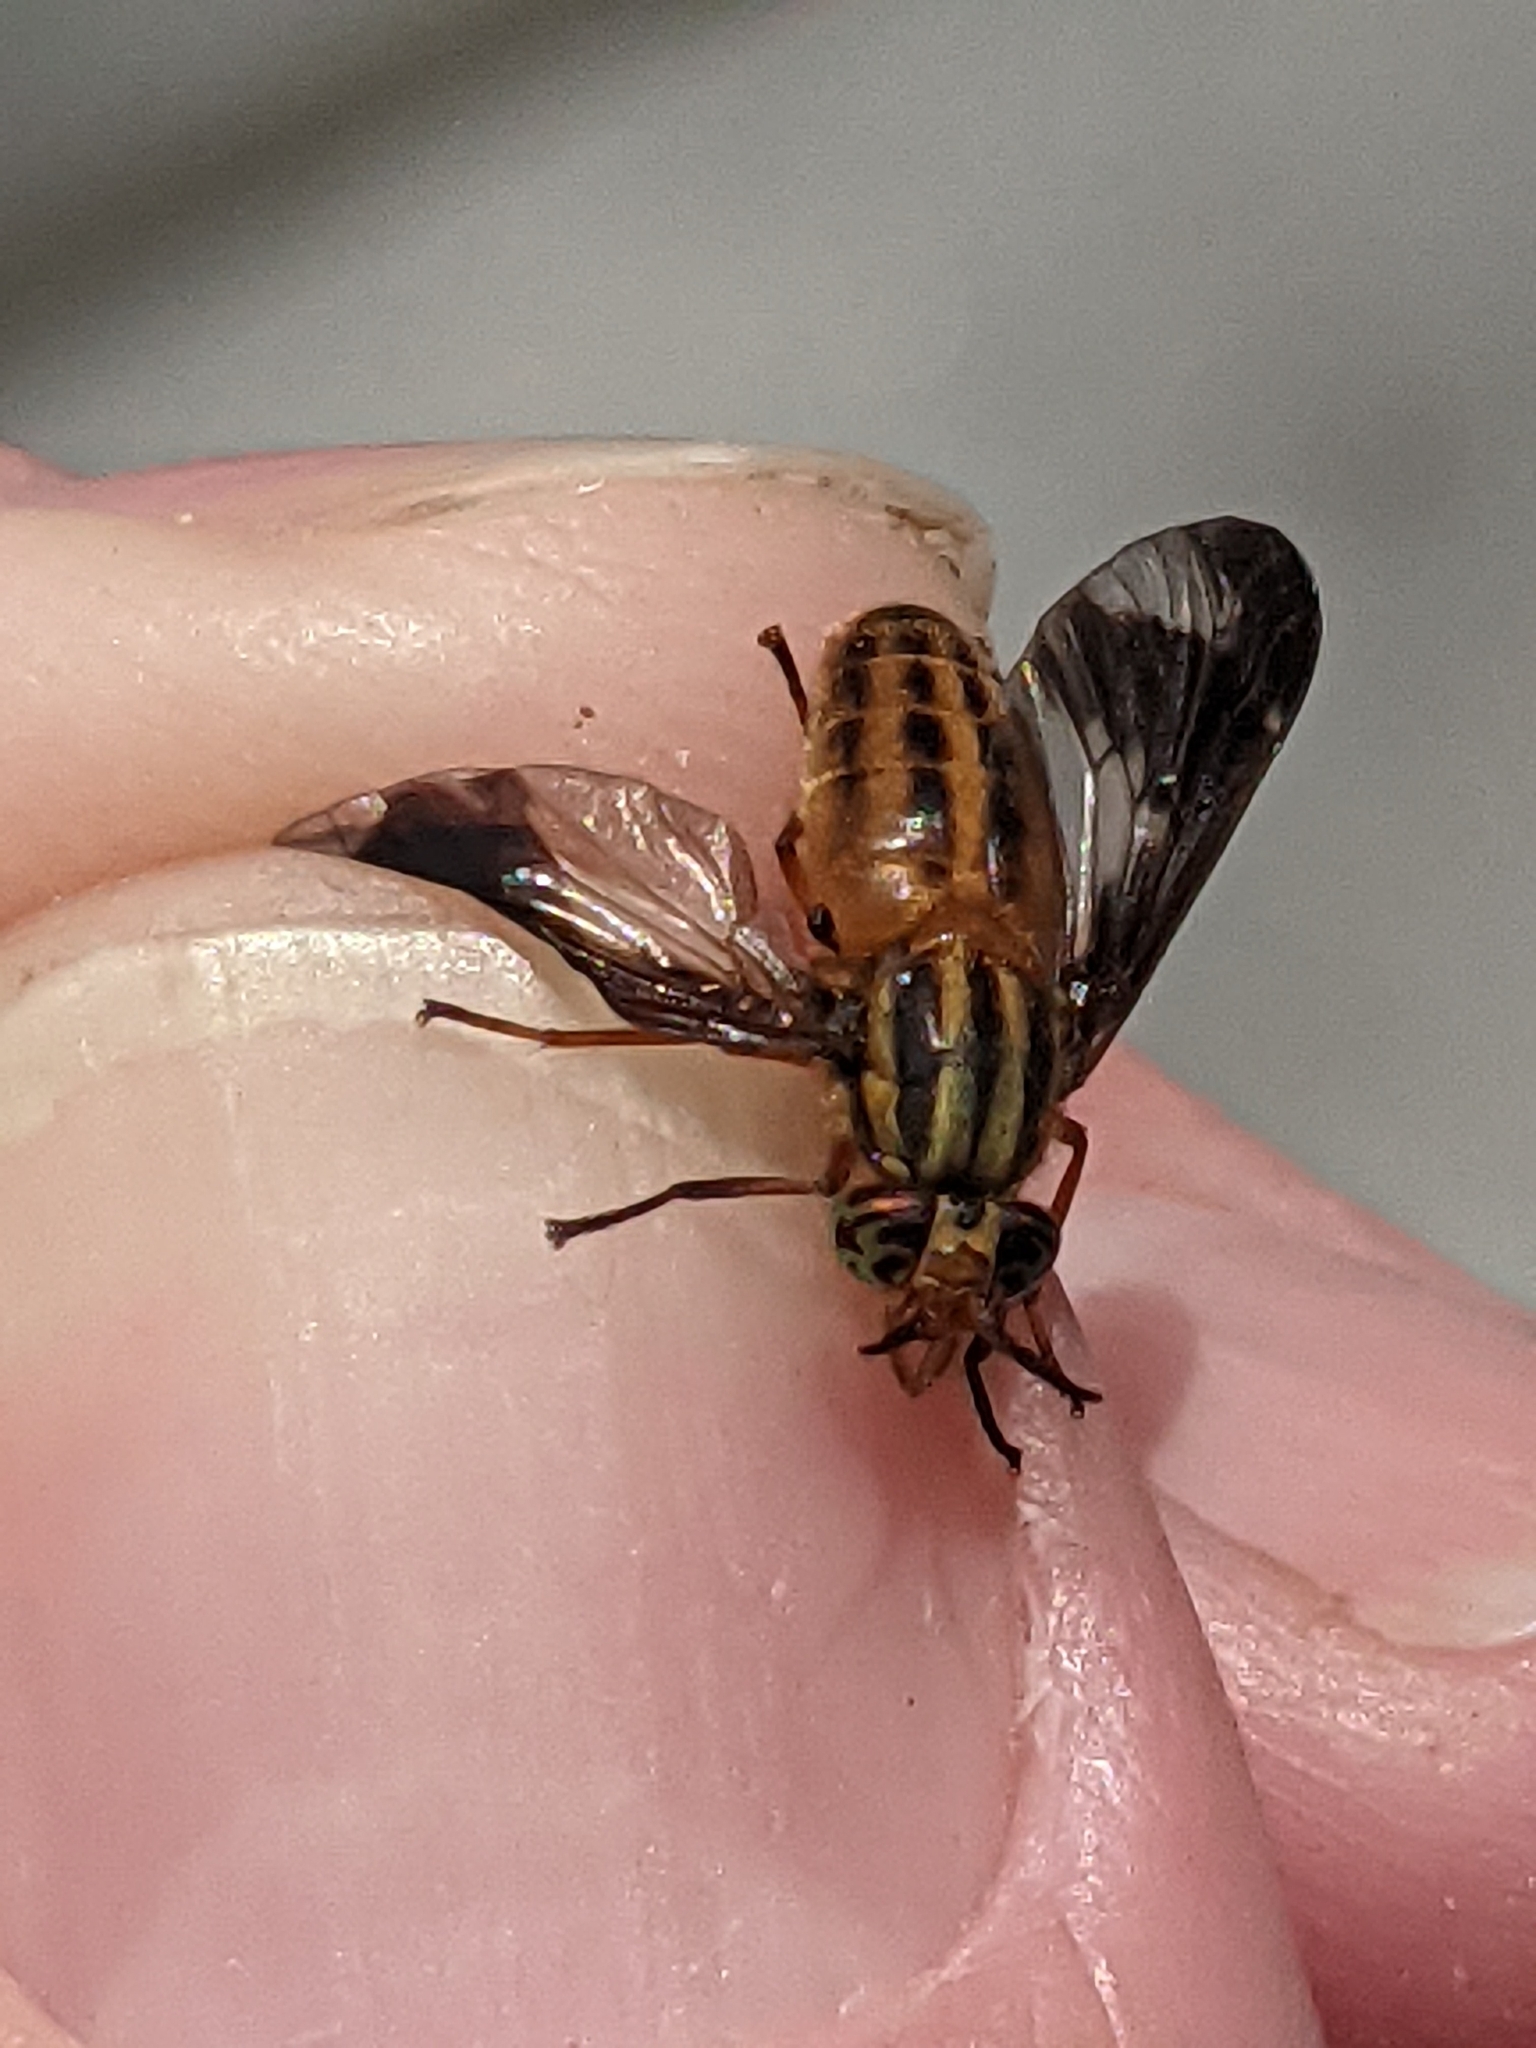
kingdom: Animalia
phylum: Arthropoda
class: Insecta
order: Diptera
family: Tabanidae
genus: Chrysops
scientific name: Chrysops vittatus
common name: Striped deer fly
